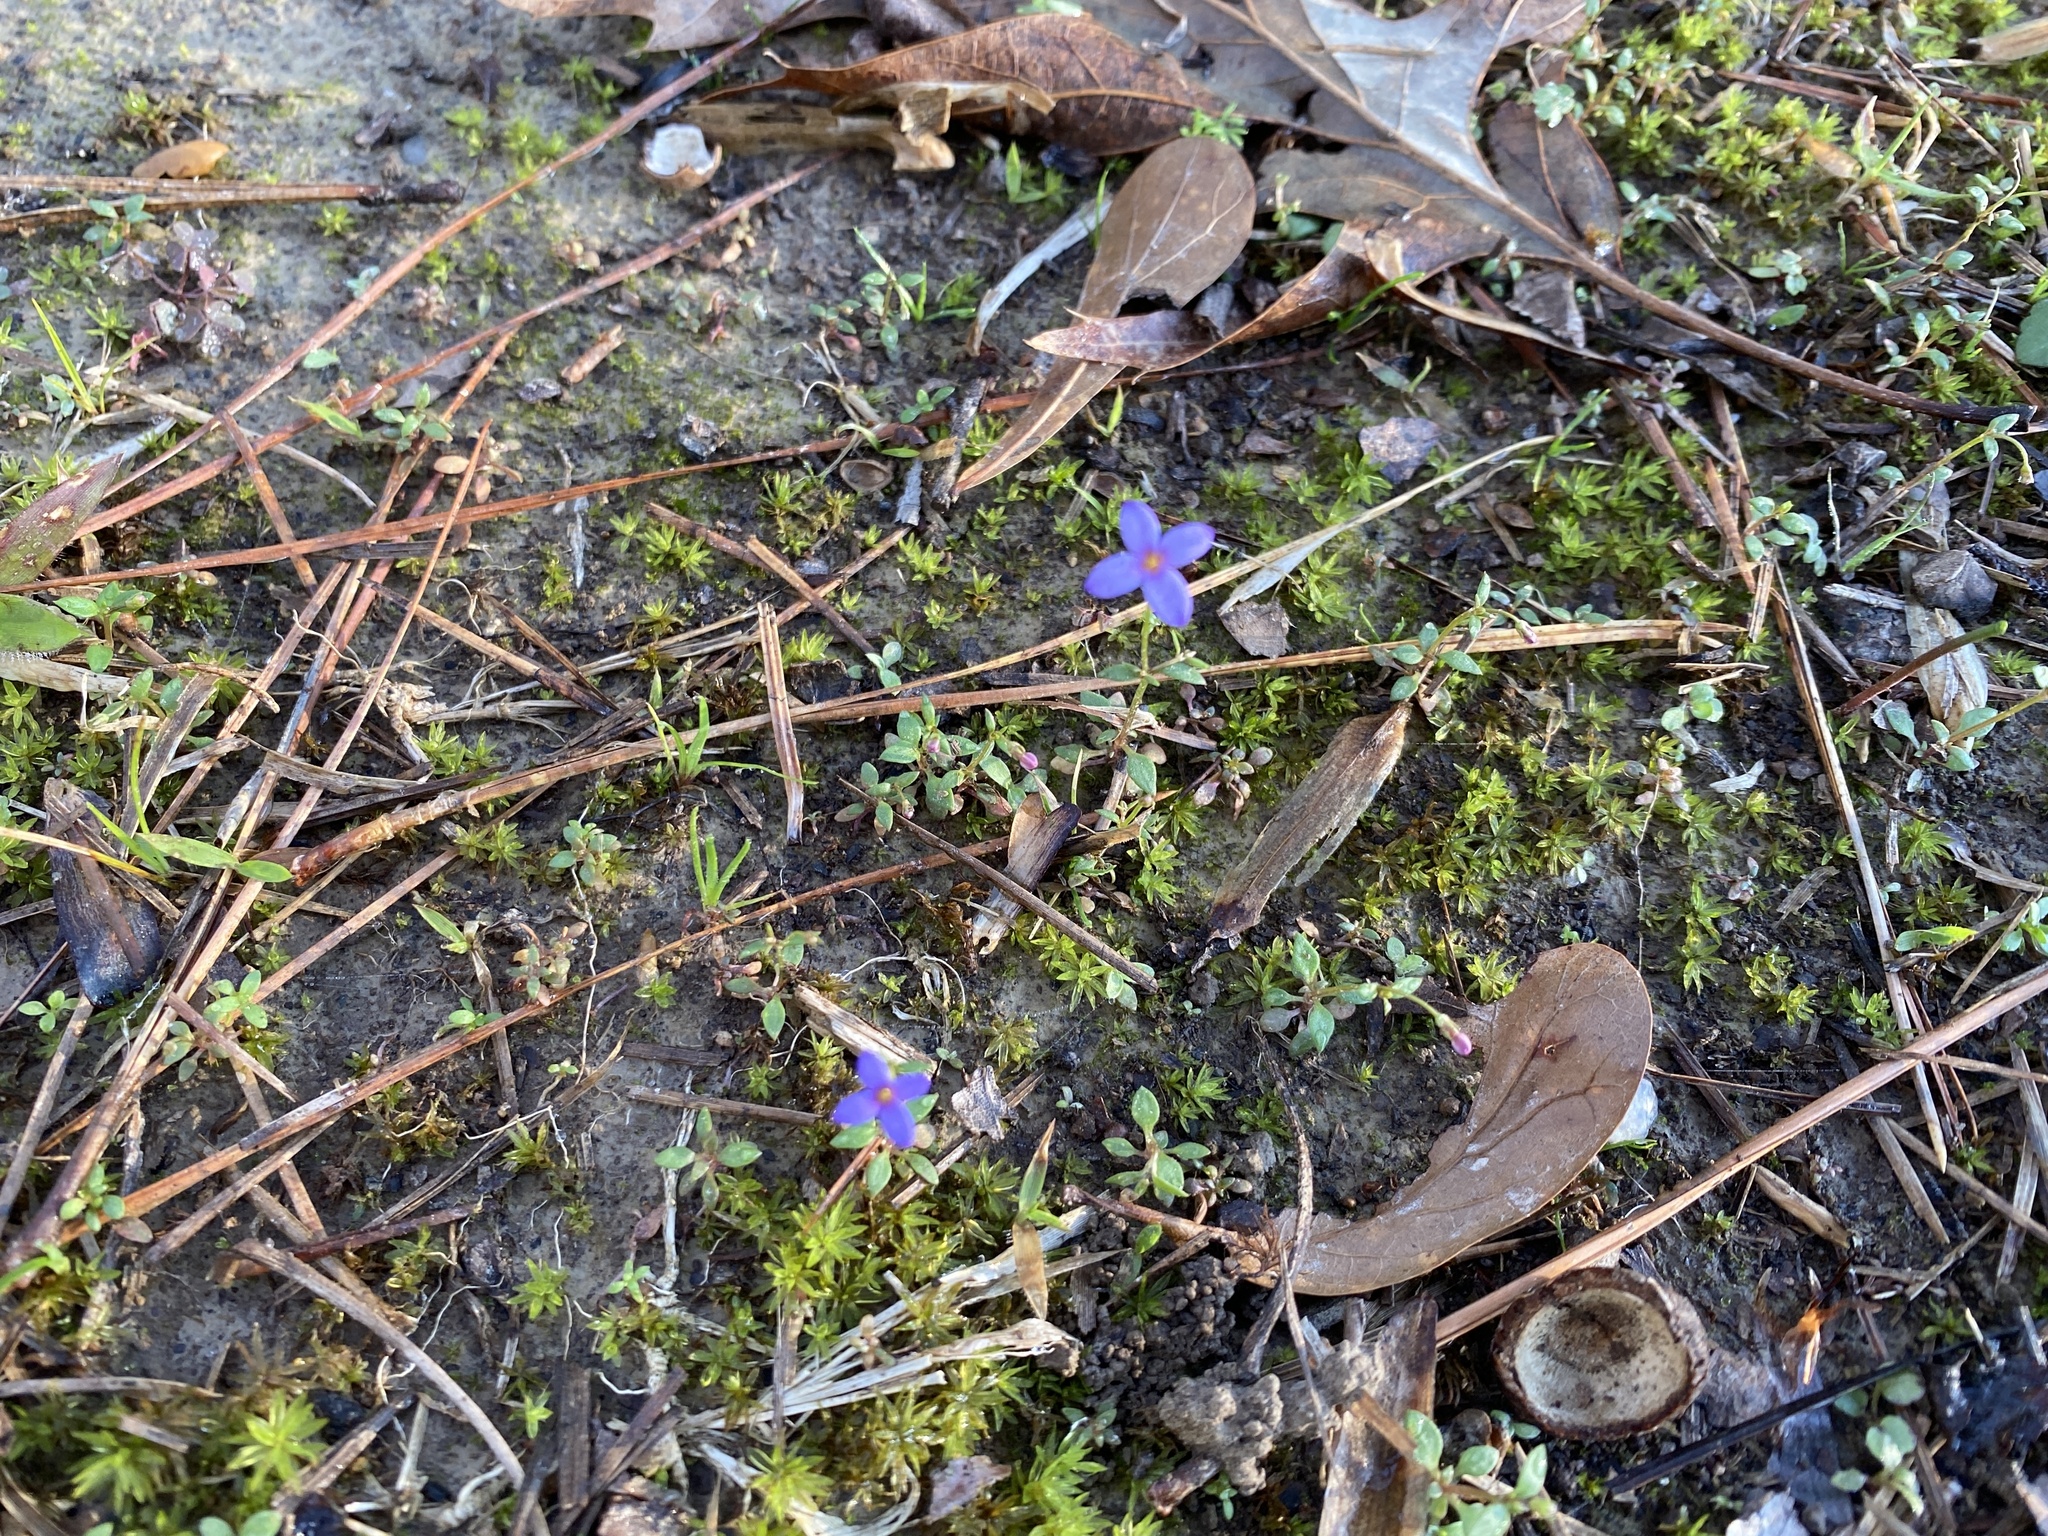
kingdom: Plantae
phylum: Tracheophyta
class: Magnoliopsida
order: Gentianales
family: Rubiaceae
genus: Houstonia
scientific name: Houstonia pusilla
